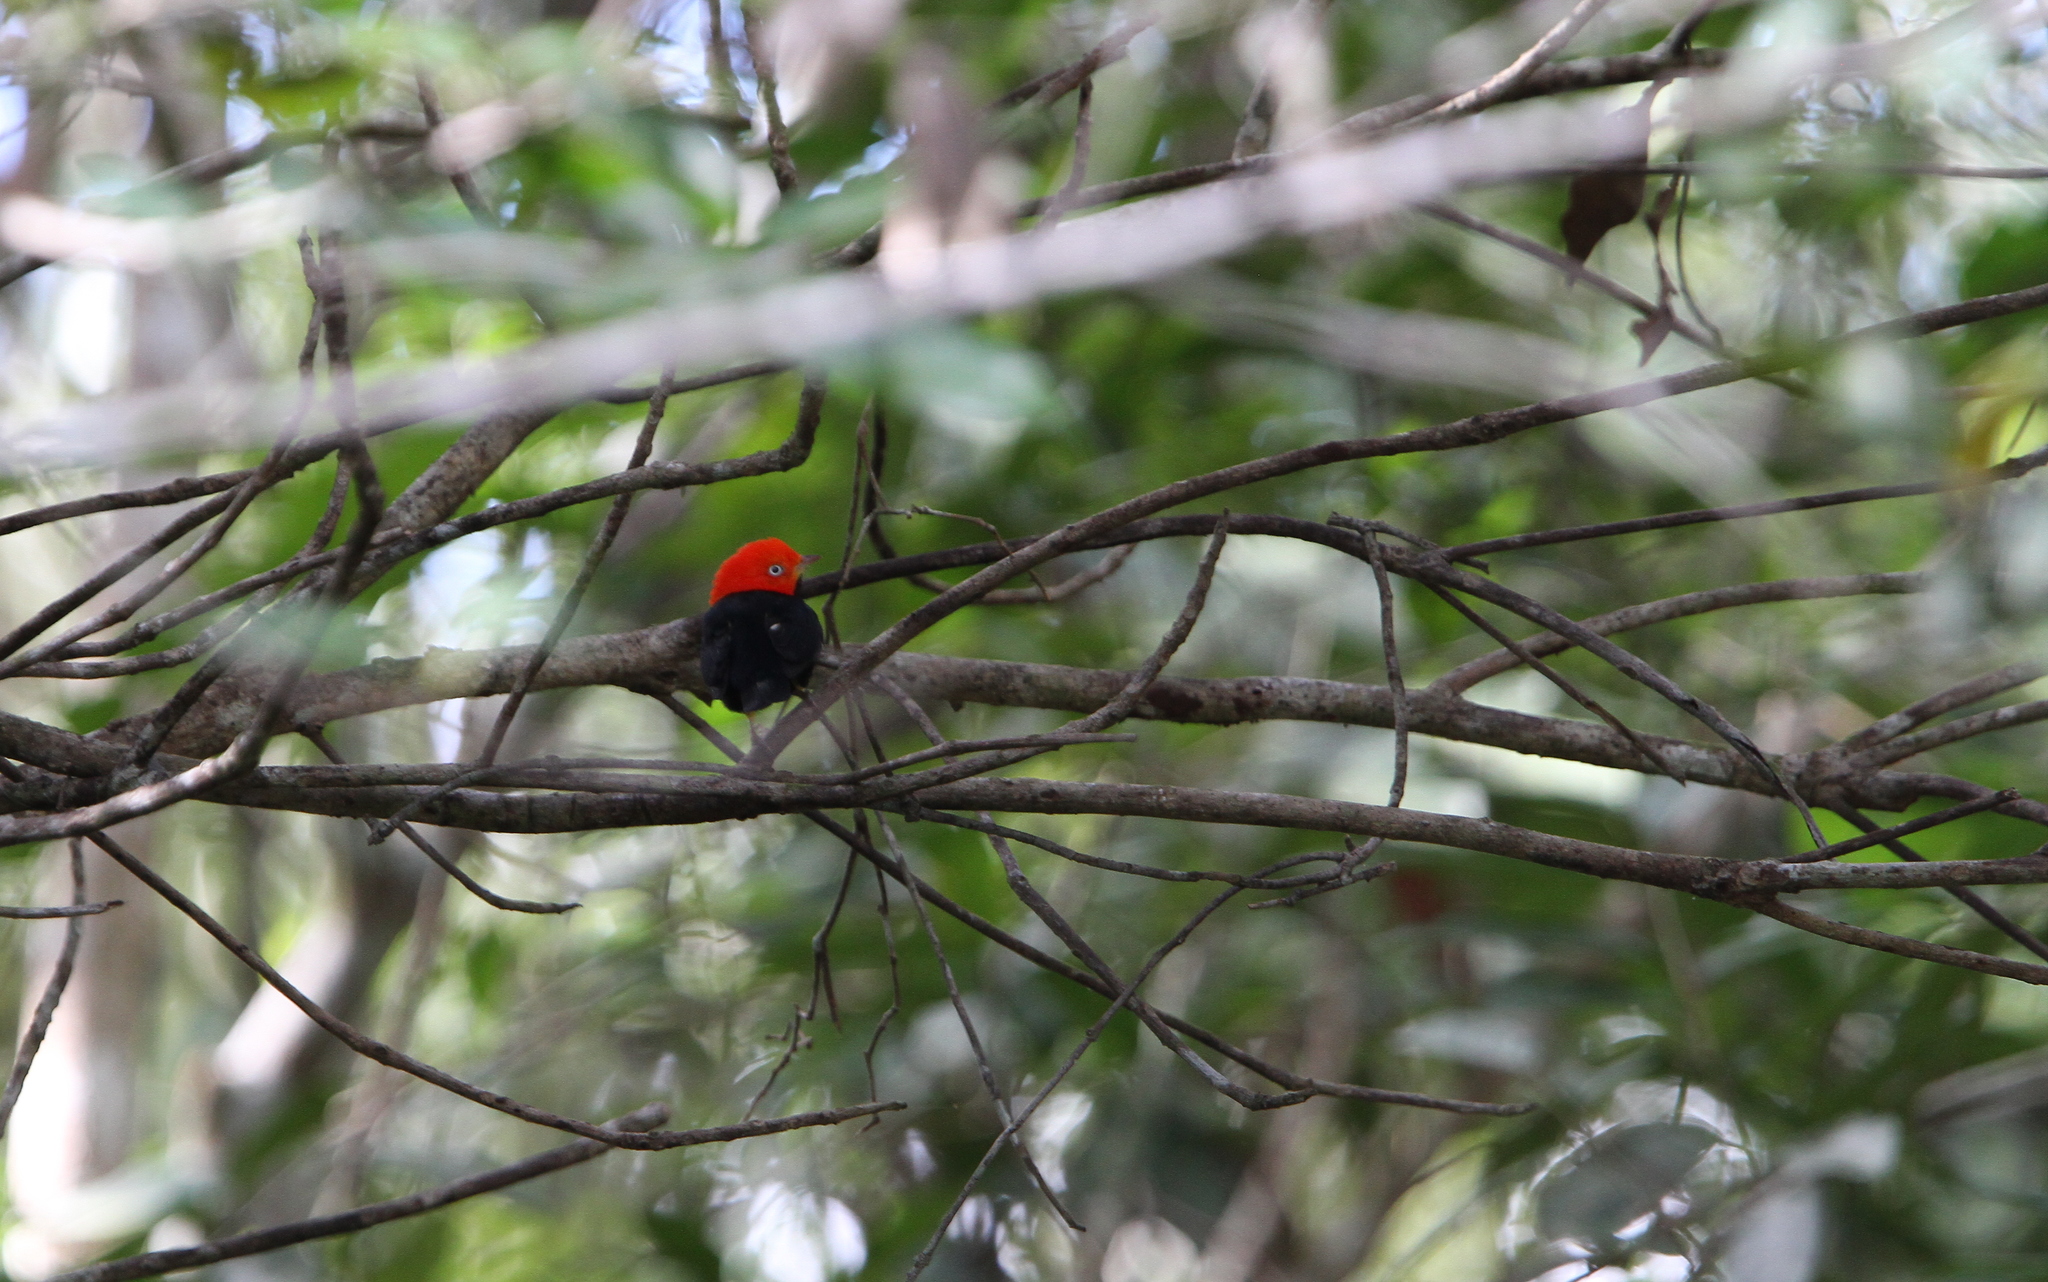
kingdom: Animalia
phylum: Chordata
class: Aves
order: Passeriformes
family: Pipridae
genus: Pipra
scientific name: Pipra mentalis
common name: Red-capped manakin
